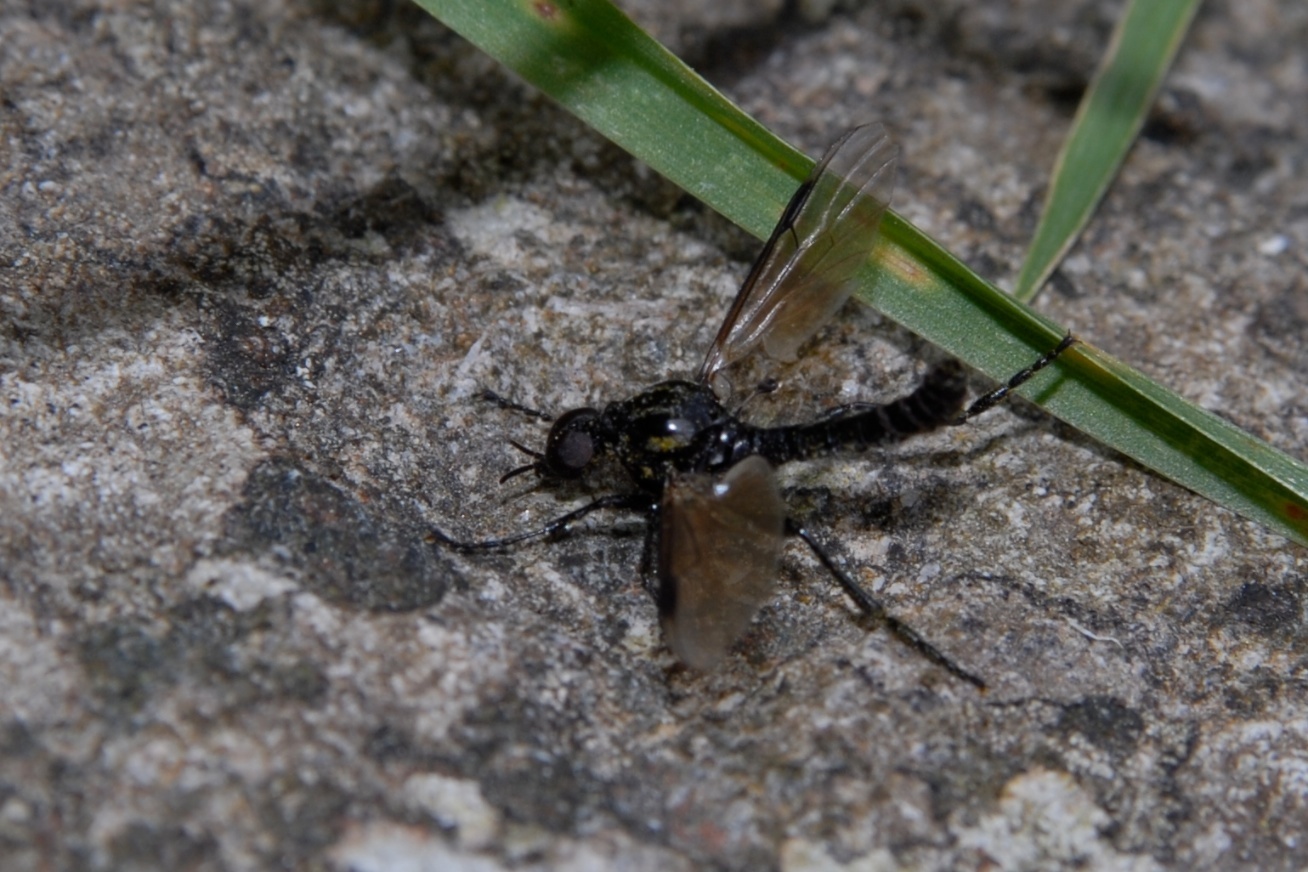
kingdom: Animalia
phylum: Arthropoda
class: Insecta
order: Diptera
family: Bibionidae
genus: Dilophus
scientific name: Dilophus nigrostigma
